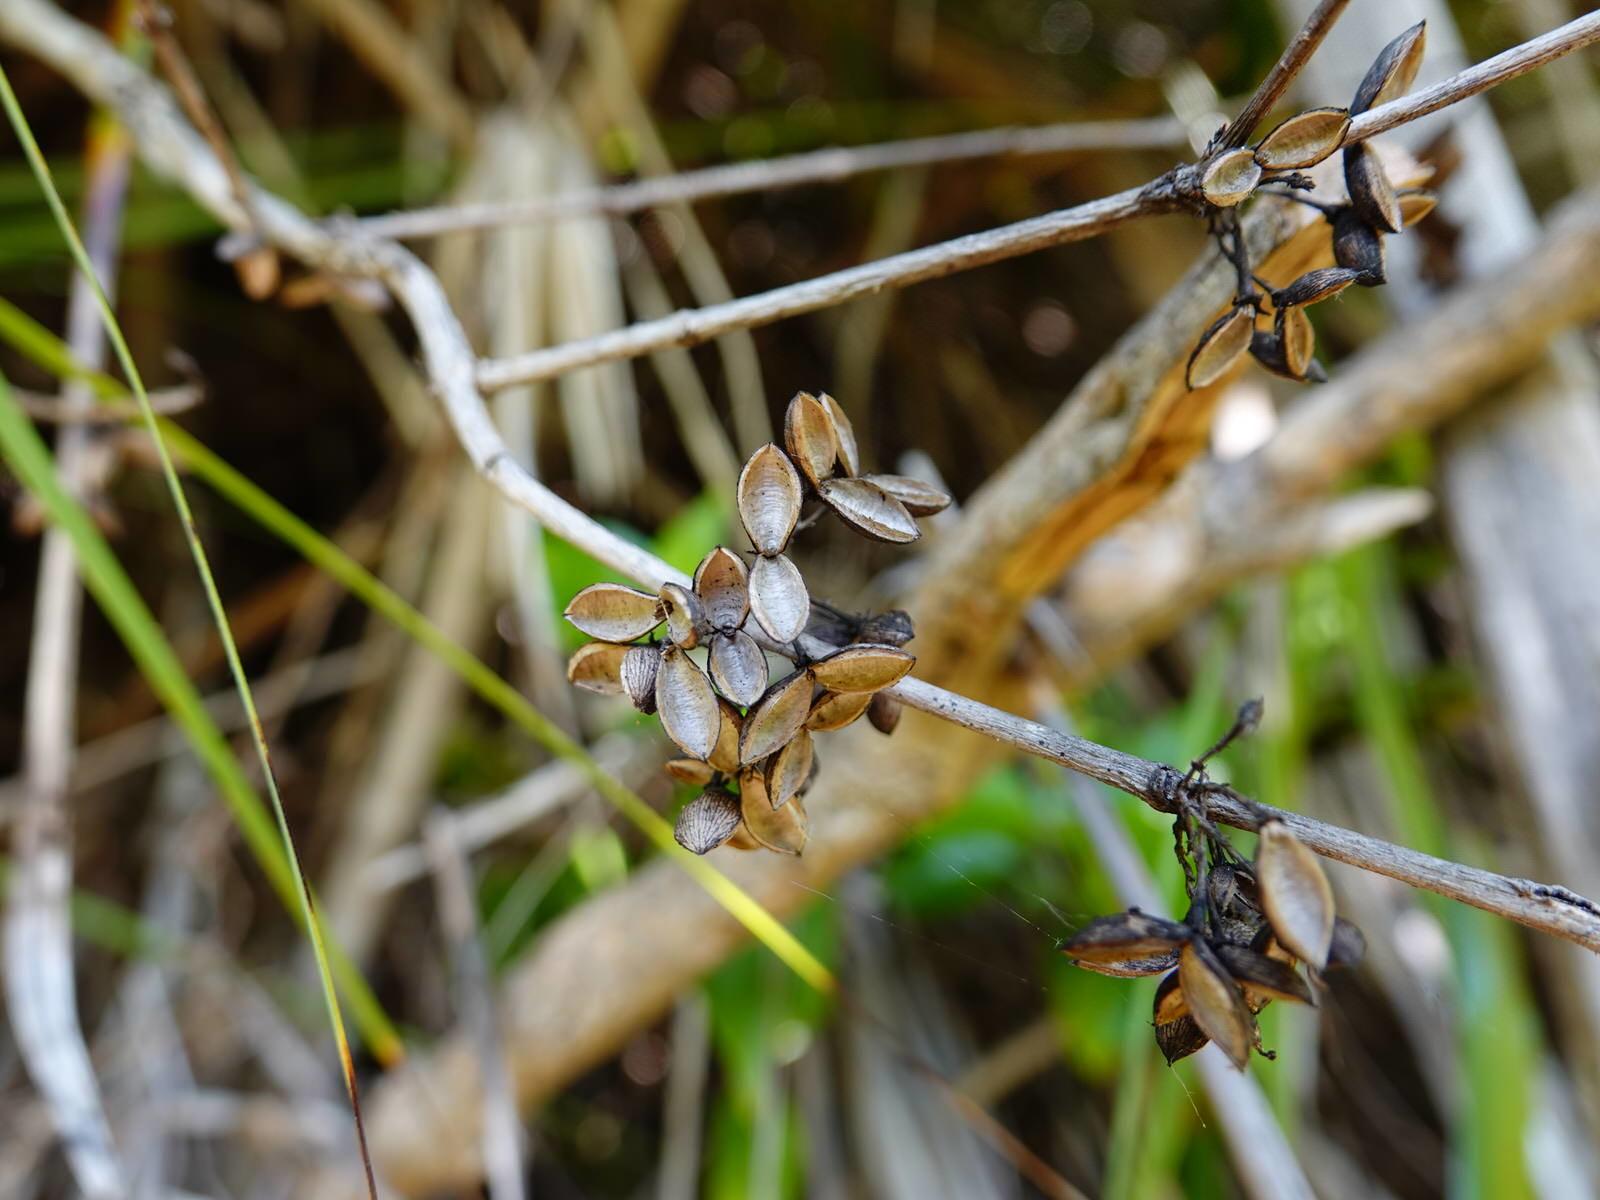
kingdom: Plantae
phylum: Tracheophyta
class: Magnoliopsida
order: Gentianales
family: Loganiaceae
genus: Geniostoma
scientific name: Geniostoma ligustrifolium
